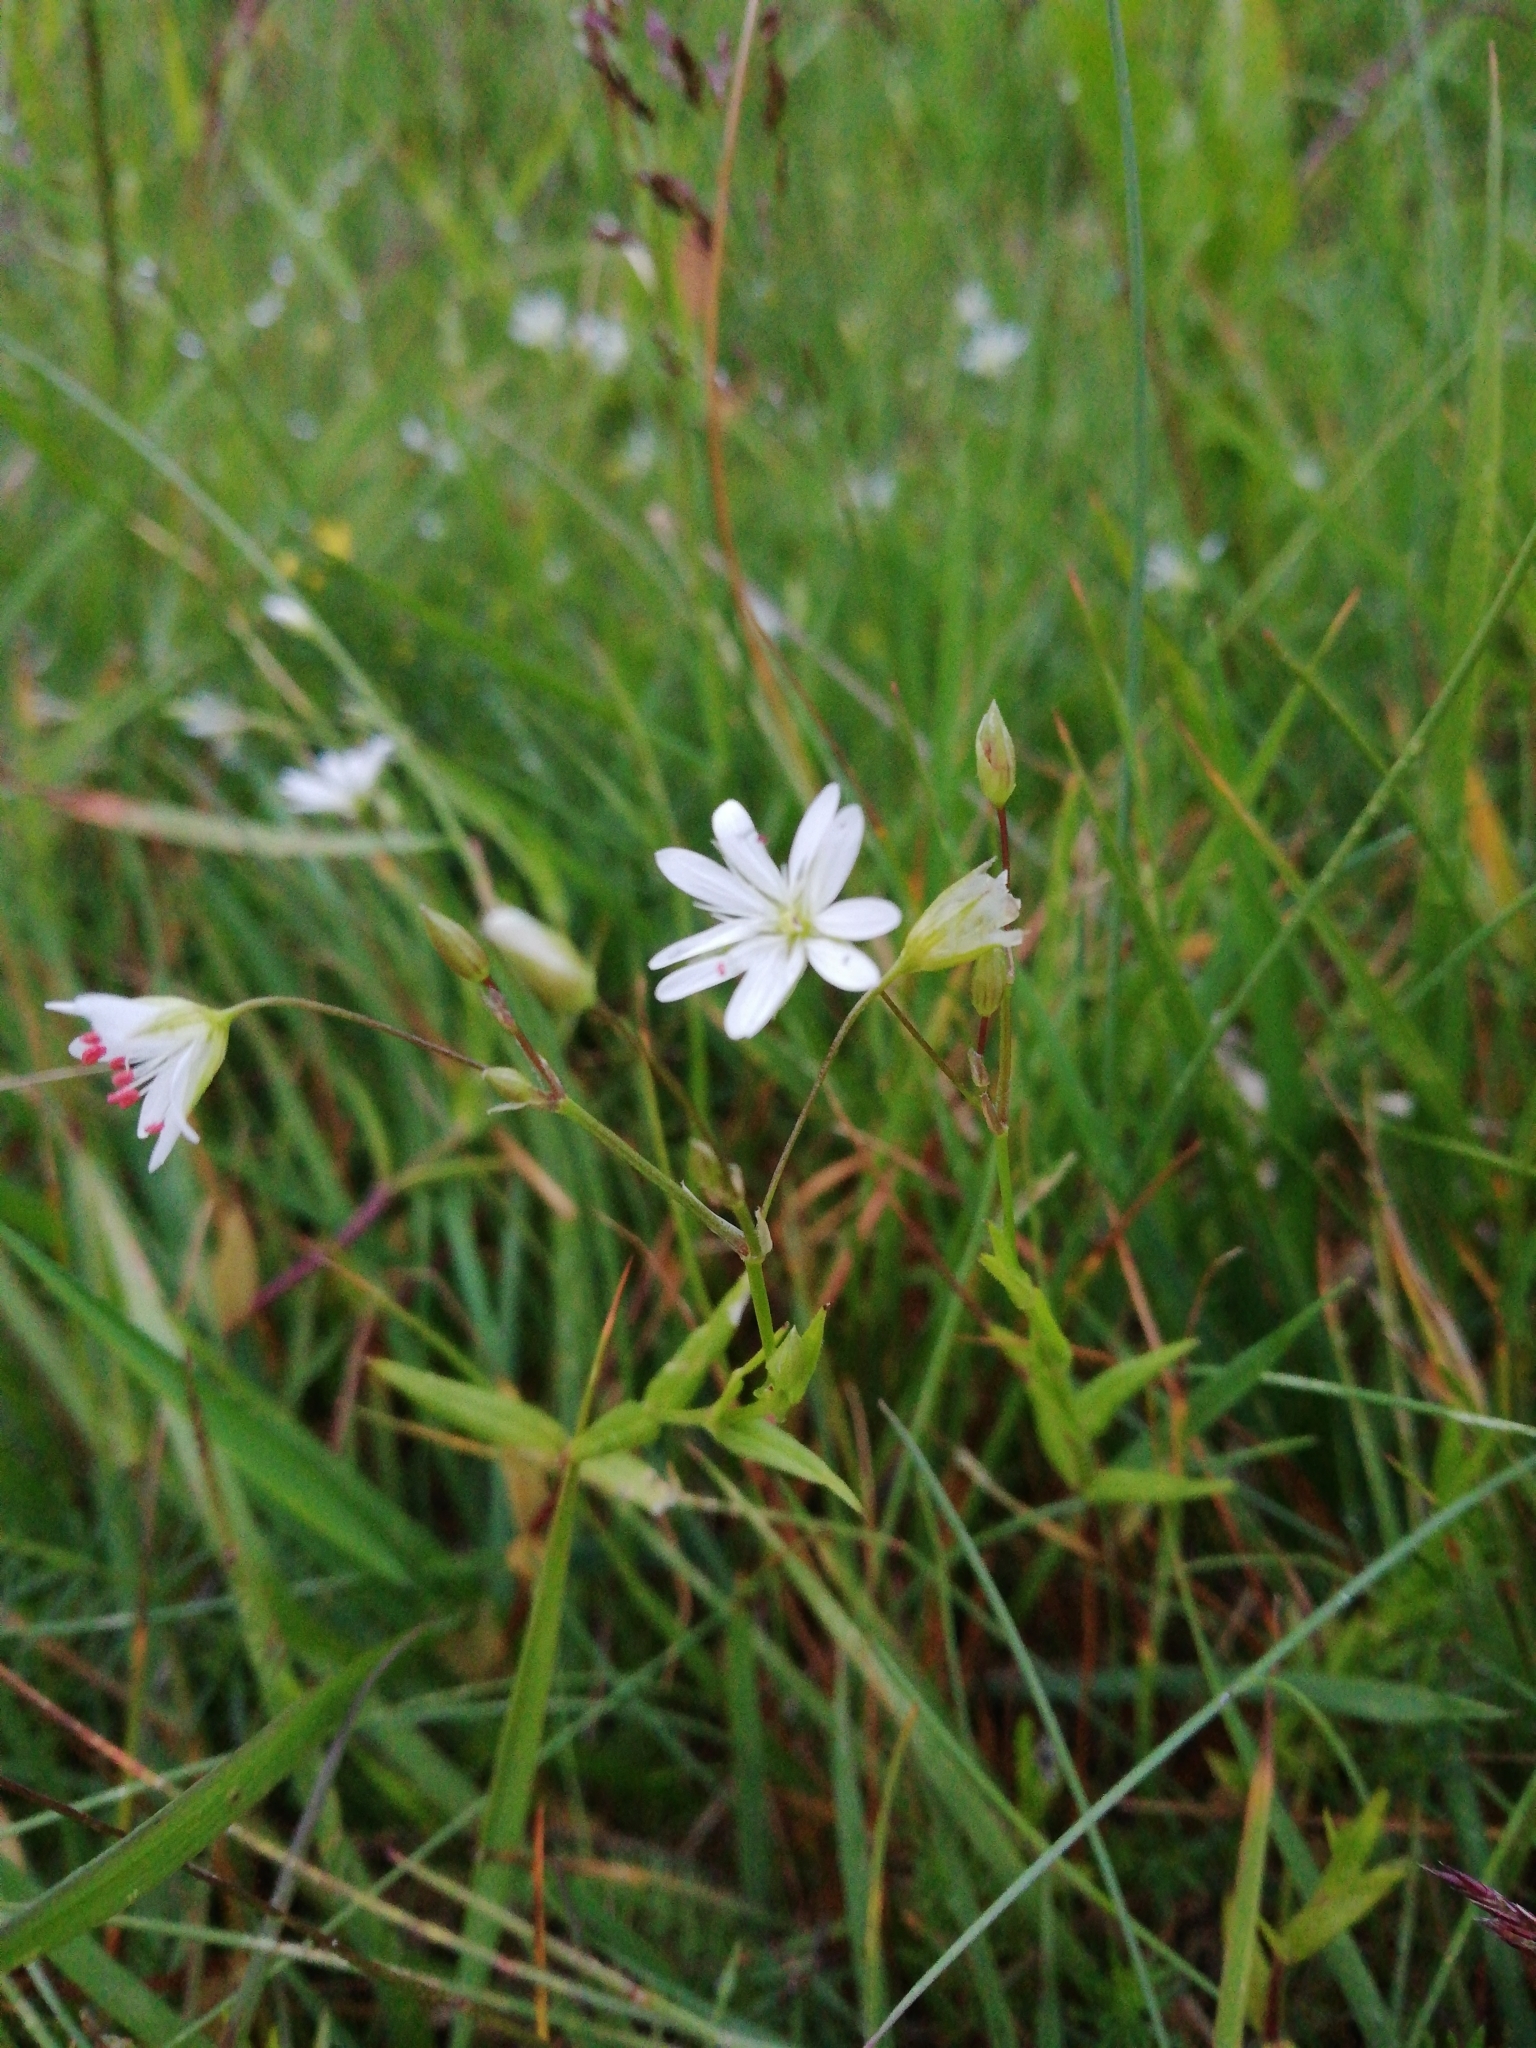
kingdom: Plantae
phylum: Tracheophyta
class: Magnoliopsida
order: Caryophyllales
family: Caryophyllaceae
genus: Stellaria
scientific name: Stellaria graminea
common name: Grass-like starwort
